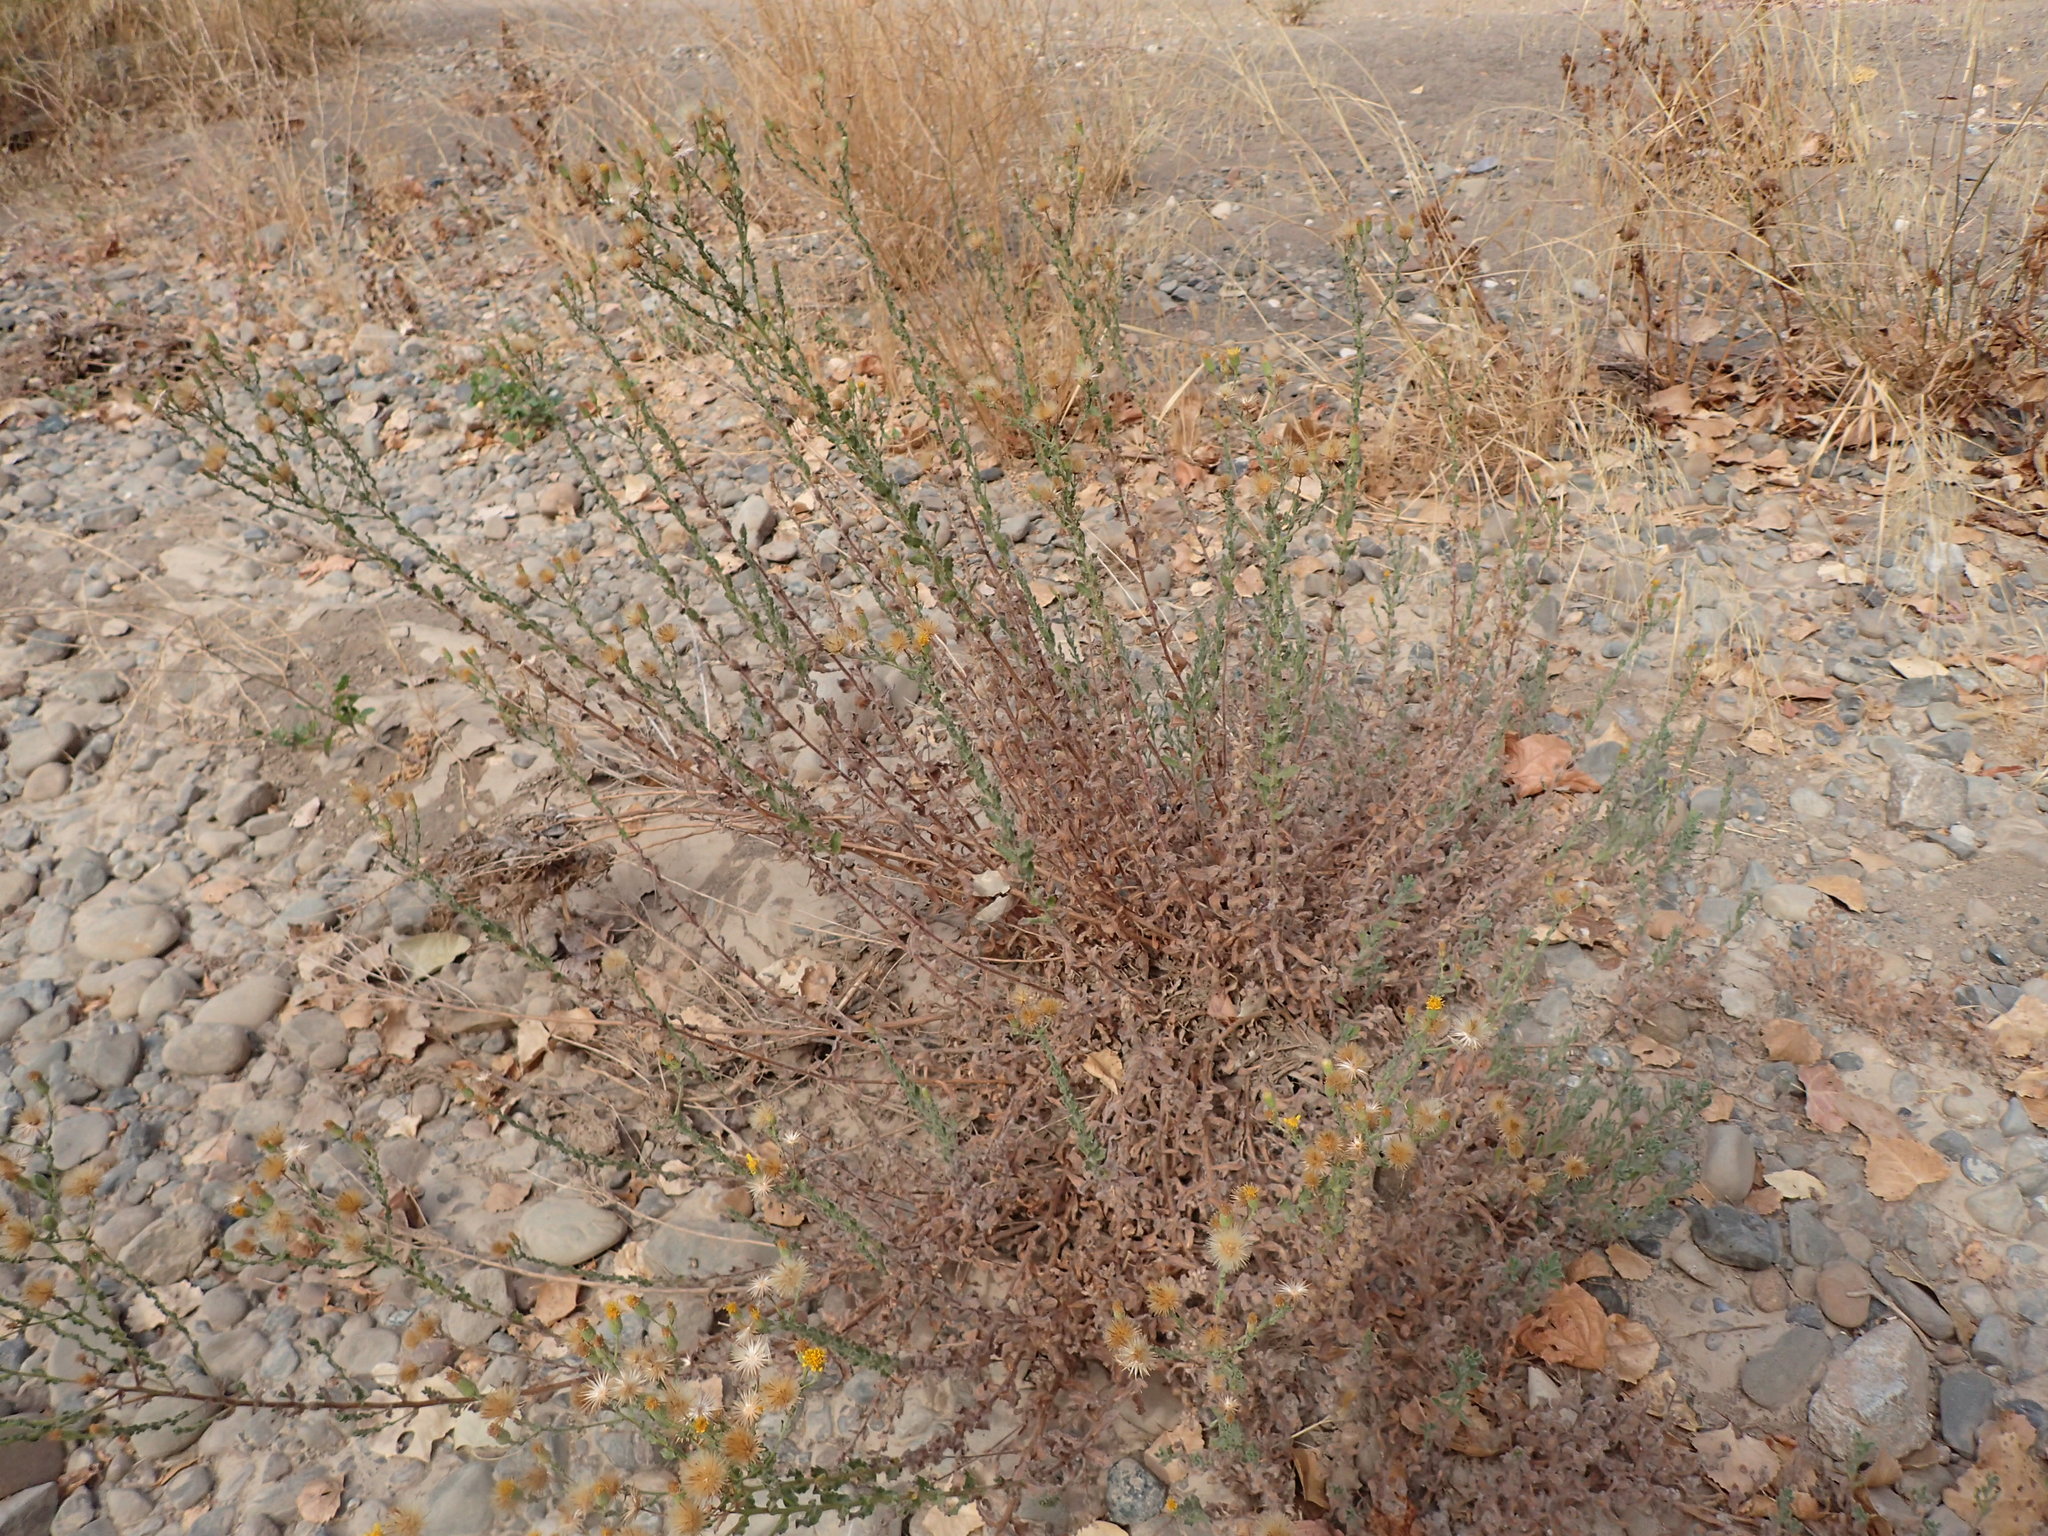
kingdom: Plantae
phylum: Tracheophyta
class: Magnoliopsida
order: Asterales
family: Asteraceae
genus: Heterotheca
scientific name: Heterotheca sessiliflora
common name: Sessile-flower golden-aster
